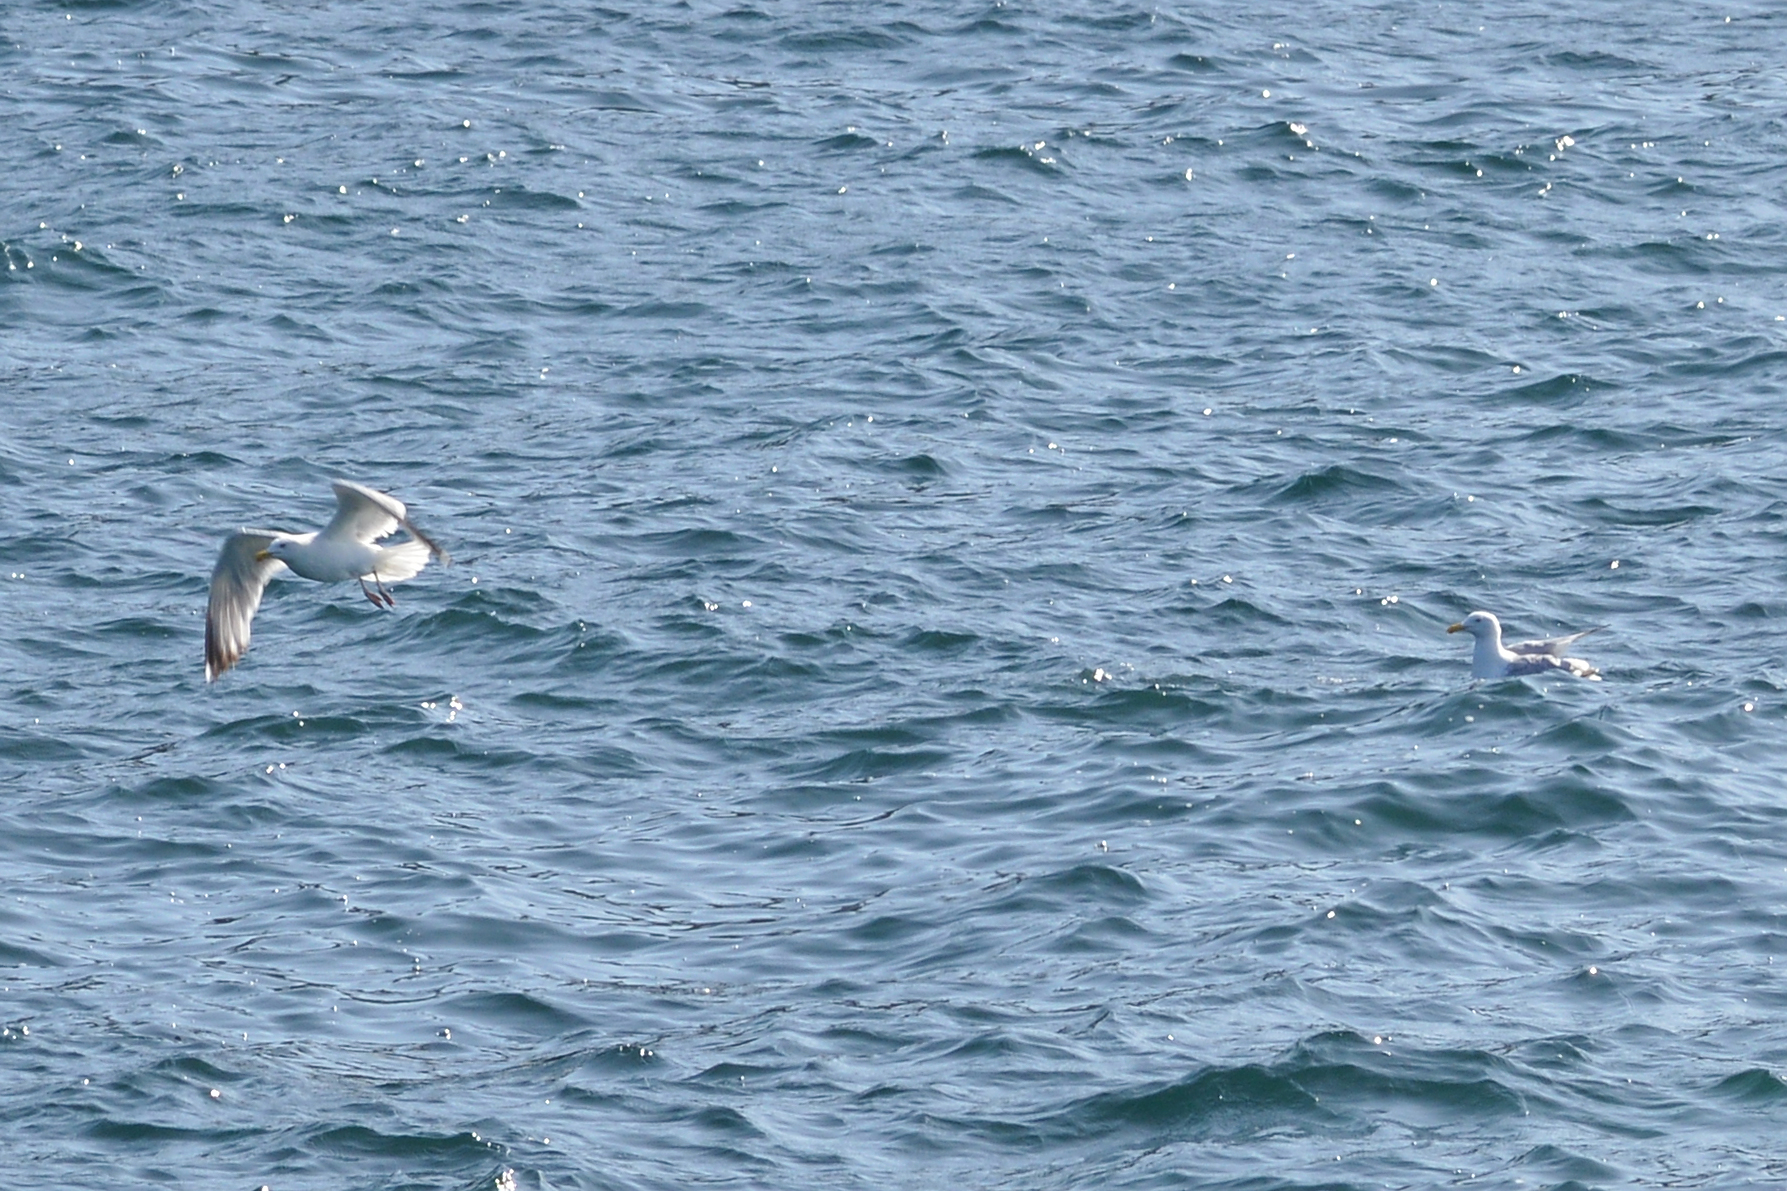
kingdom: Animalia
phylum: Chordata
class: Aves
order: Charadriiformes
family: Laridae
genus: Larus
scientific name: Larus argentatus
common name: Herring gull
